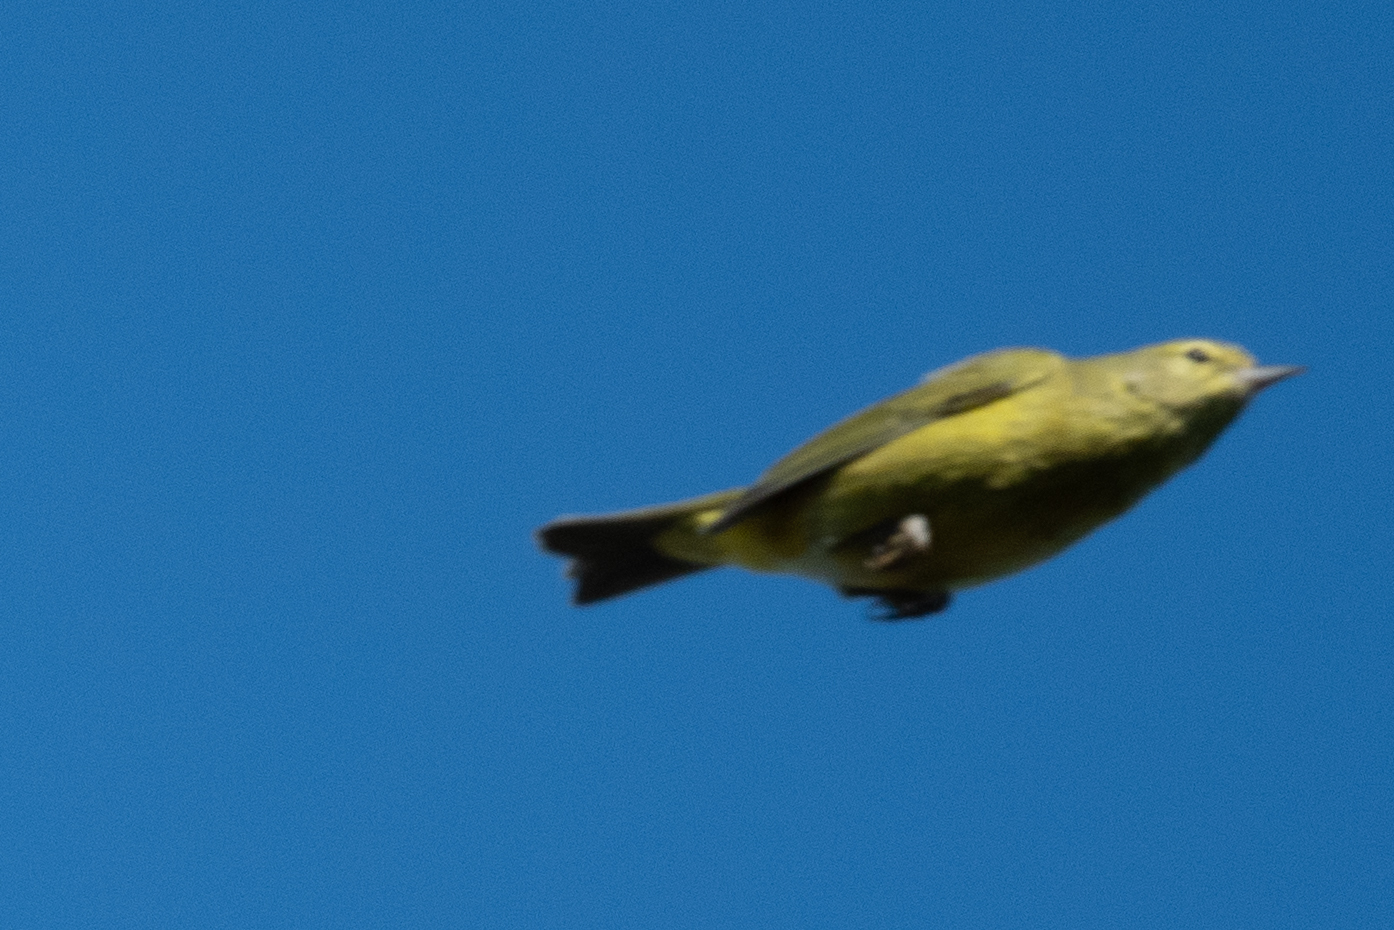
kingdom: Animalia
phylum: Chordata
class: Aves
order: Passeriformes
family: Parulidae
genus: Leiothlypis
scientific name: Leiothlypis celata
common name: Orange-crowned warbler
